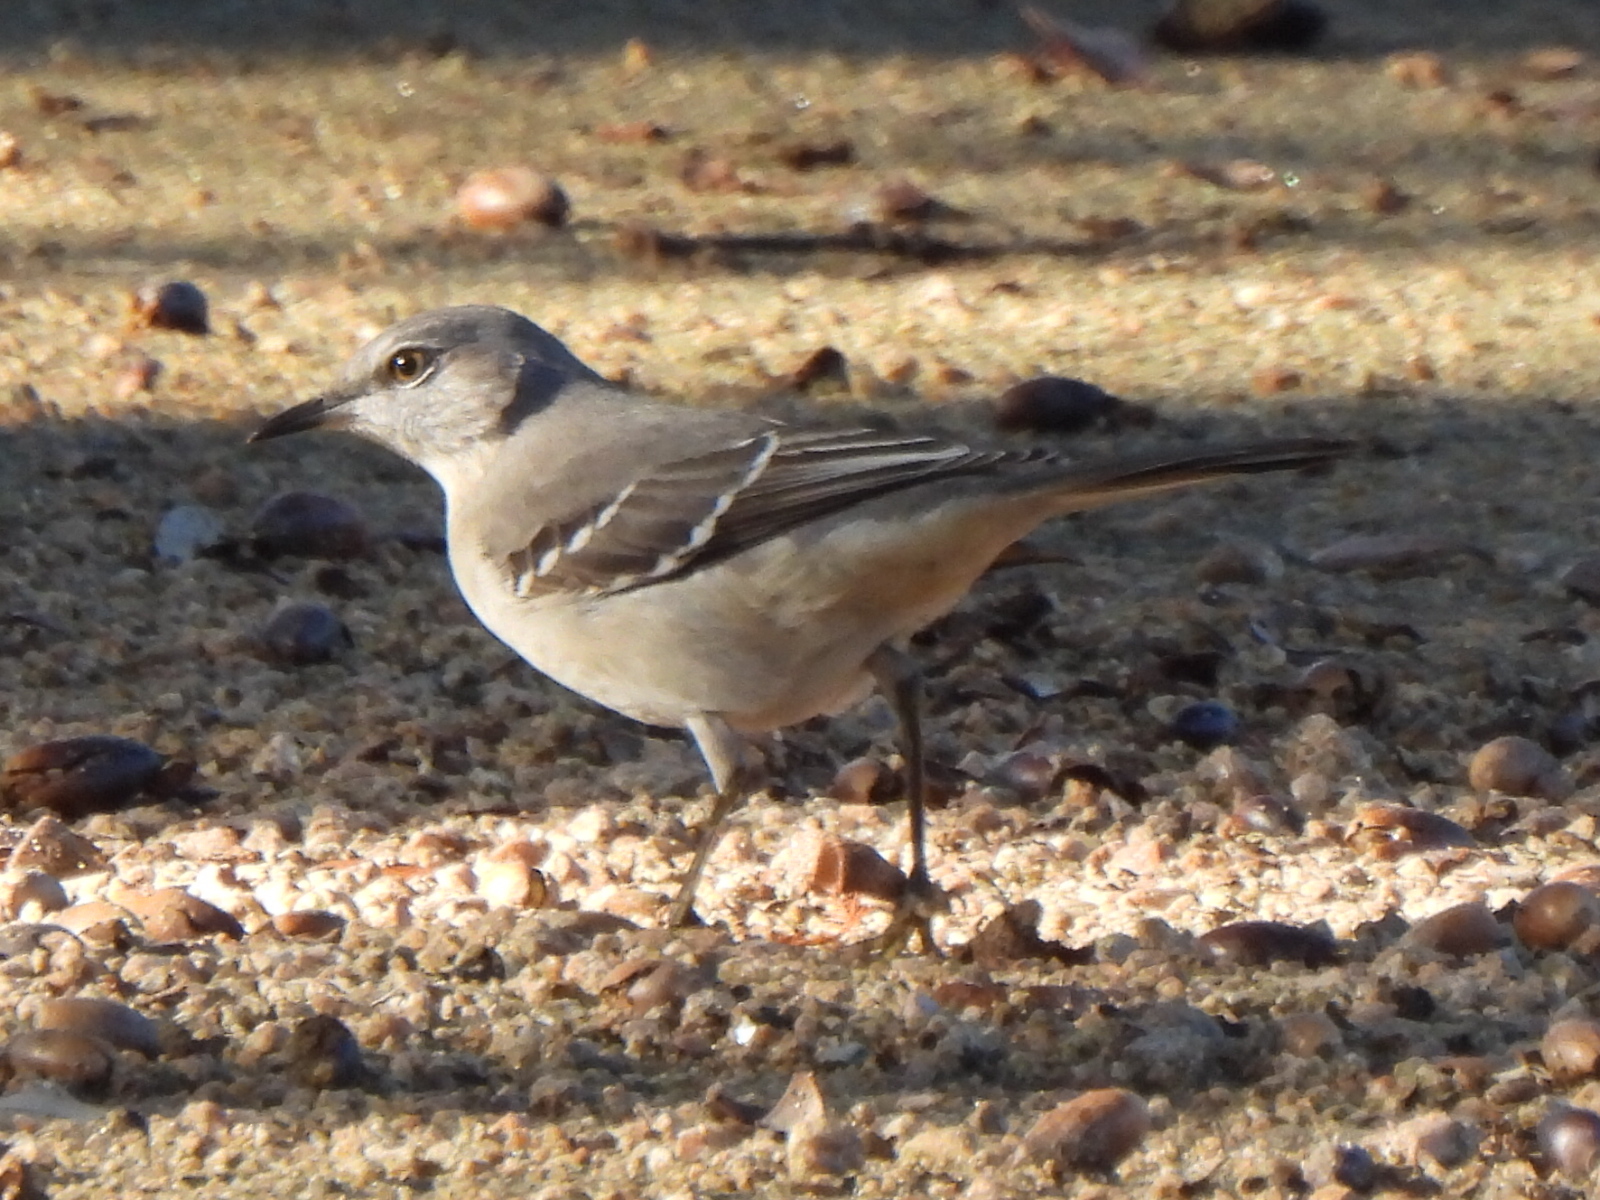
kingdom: Animalia
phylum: Chordata
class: Aves
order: Passeriformes
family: Mimidae
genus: Mimus
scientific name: Mimus polyglottos
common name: Northern mockingbird
